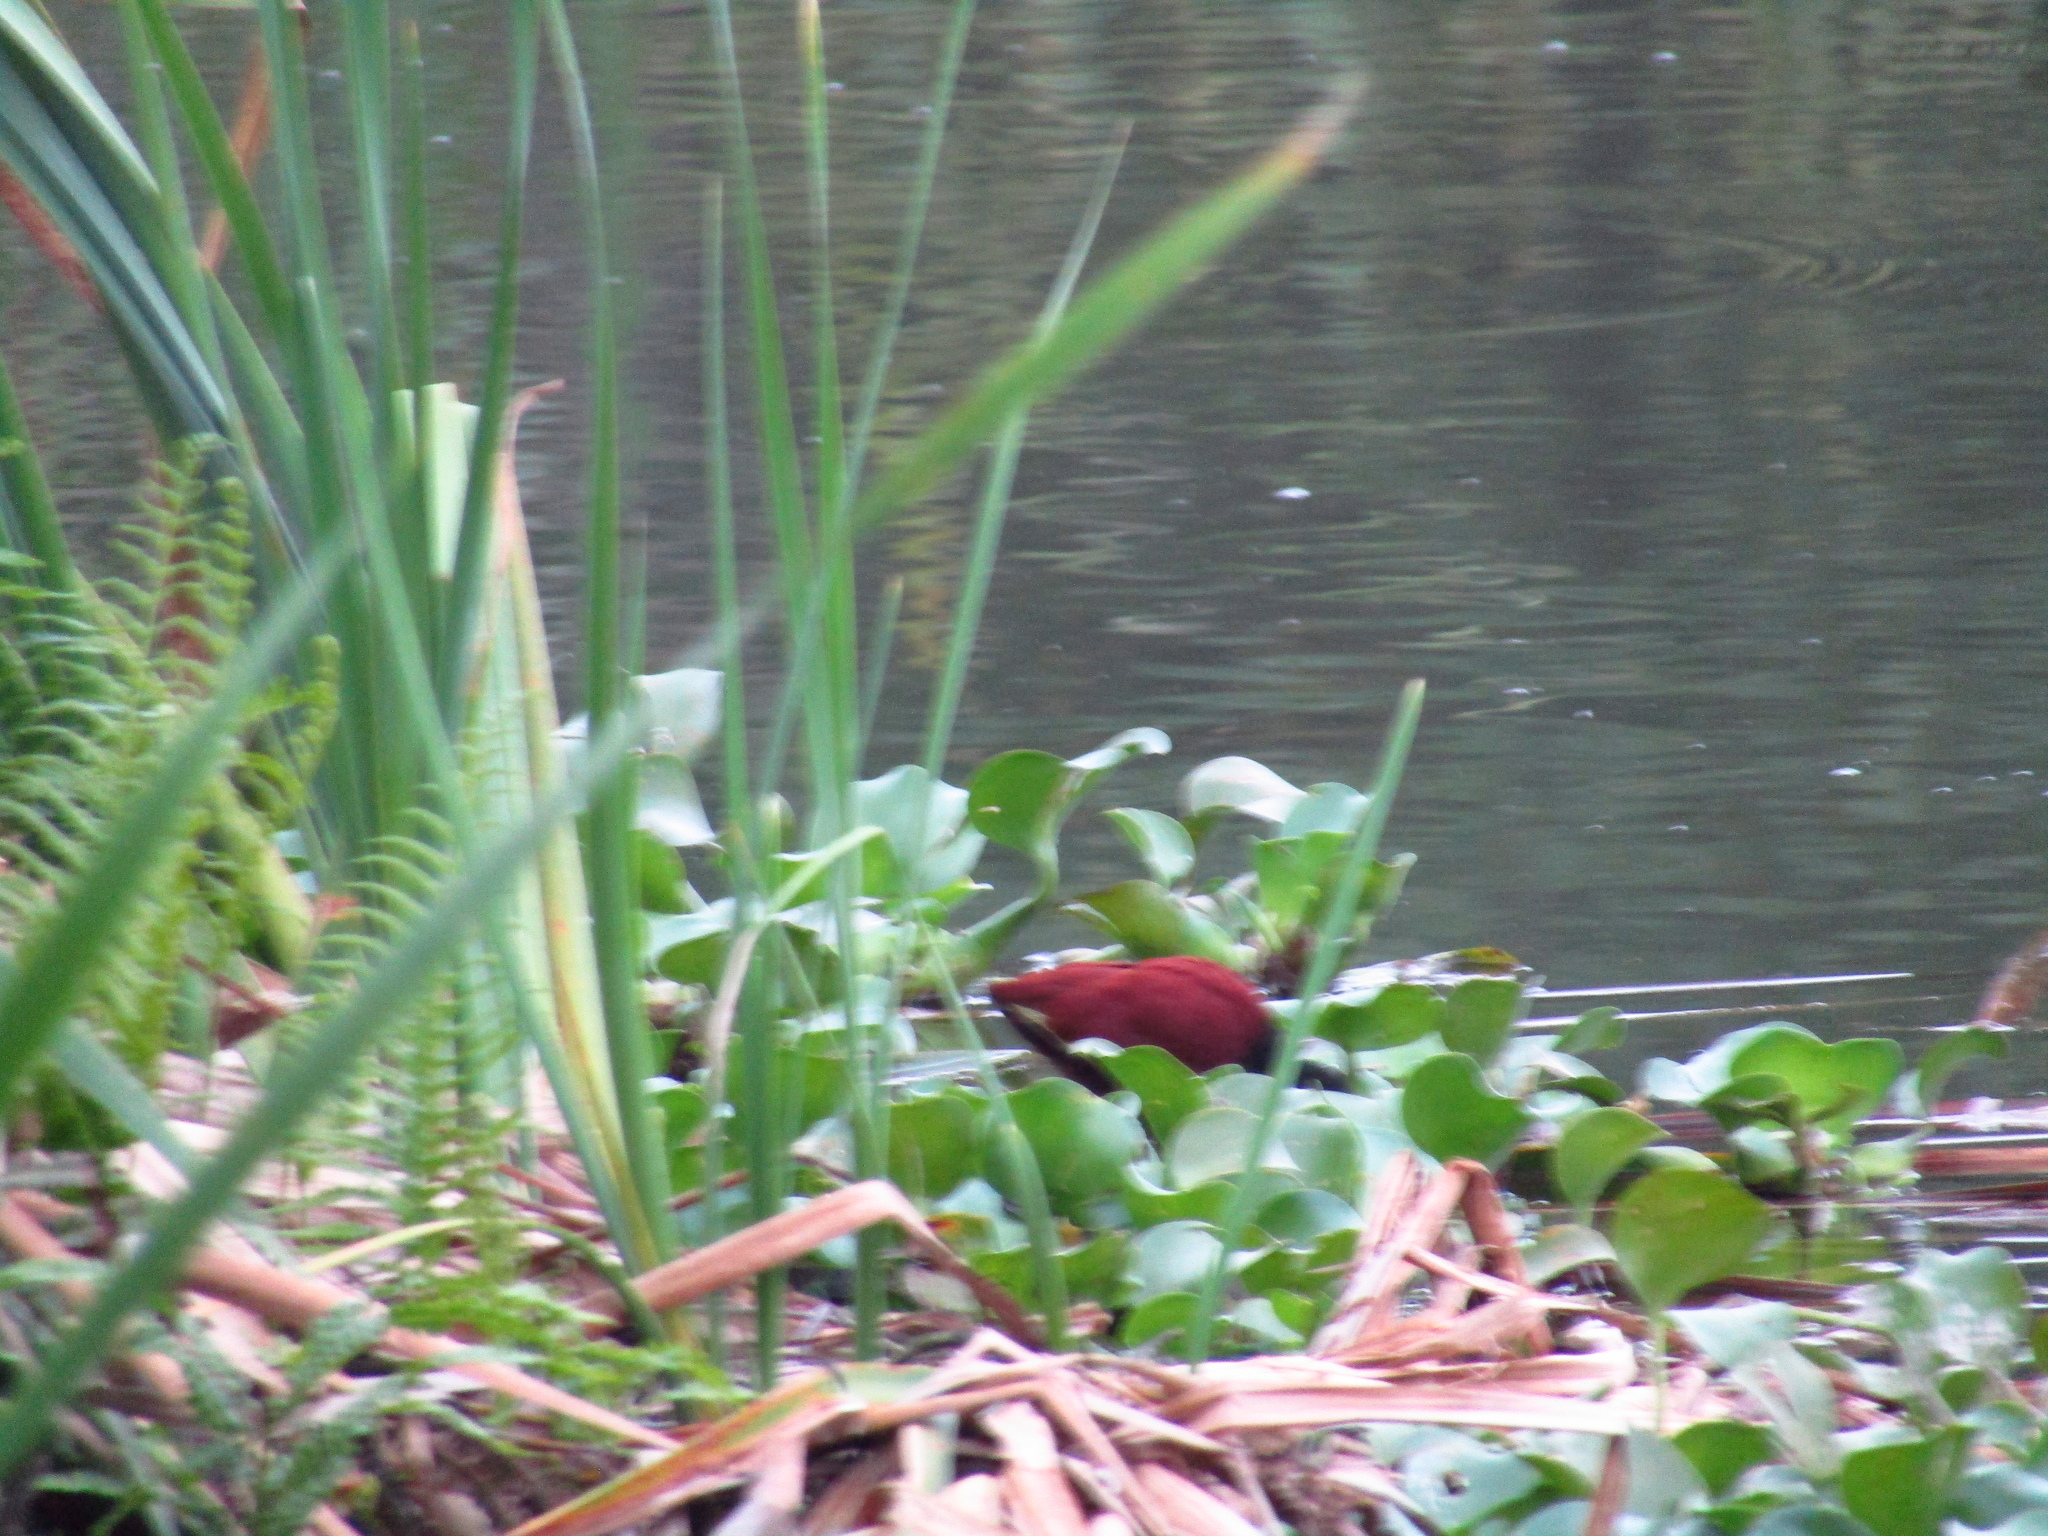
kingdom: Animalia
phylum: Chordata
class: Aves
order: Charadriiformes
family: Jacanidae
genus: Jacana
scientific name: Jacana spinosa
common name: Northern jacana
